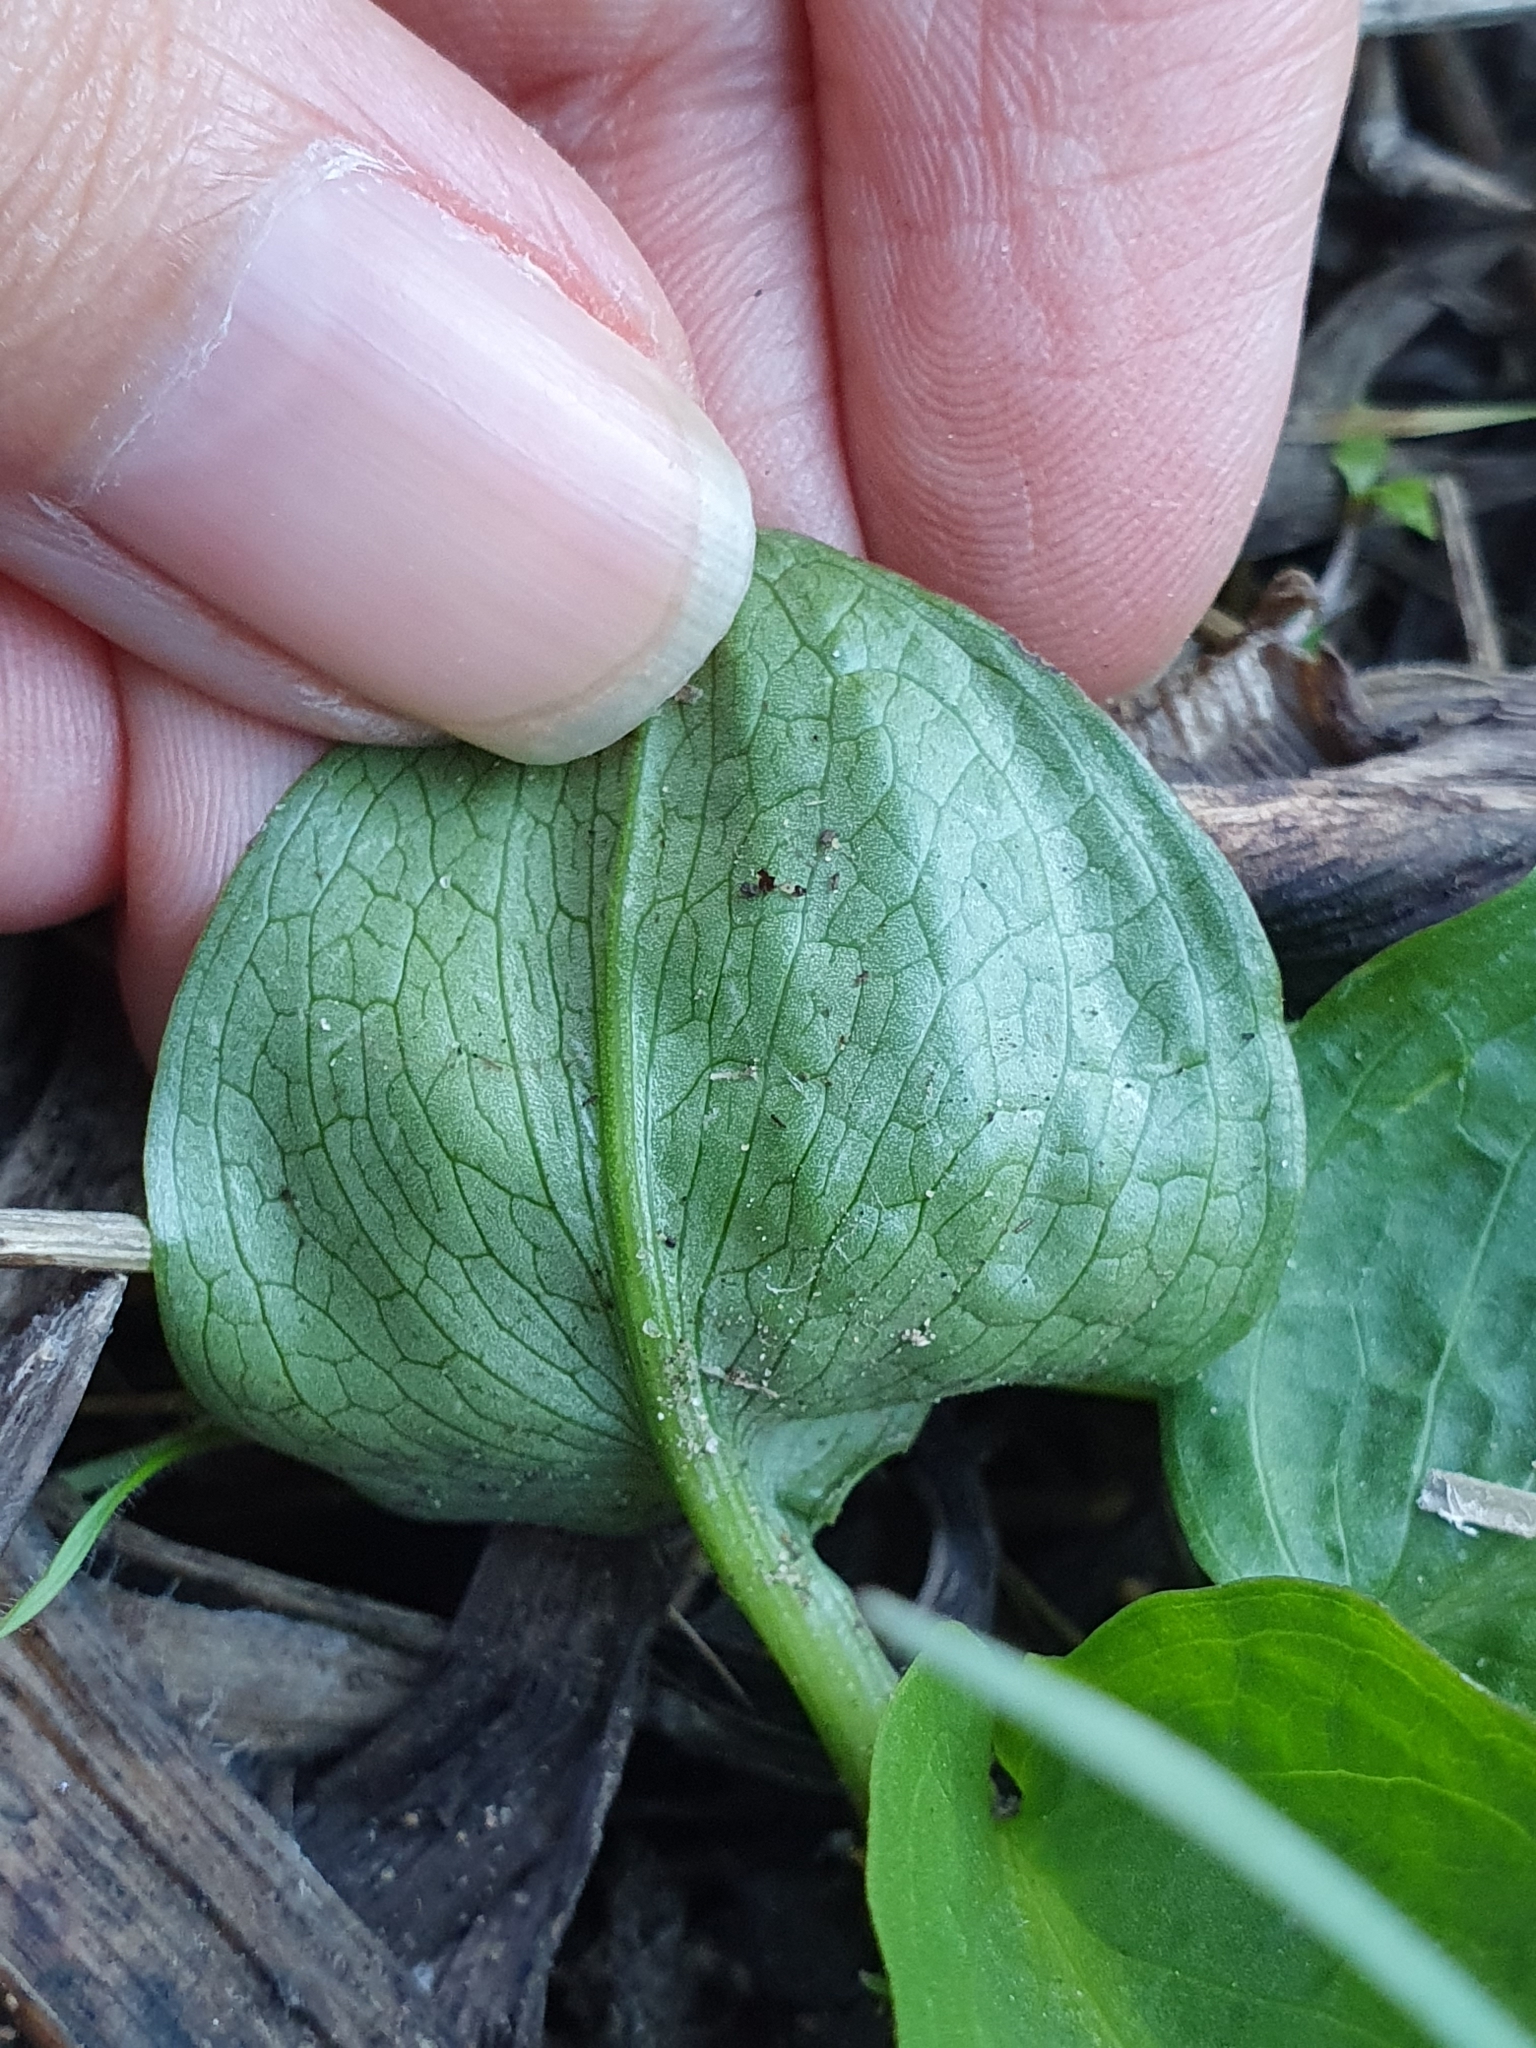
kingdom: Plantae
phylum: Tracheophyta
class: Liliopsida
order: Alismatales
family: Araceae
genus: Biarum
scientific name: Biarum dispar
